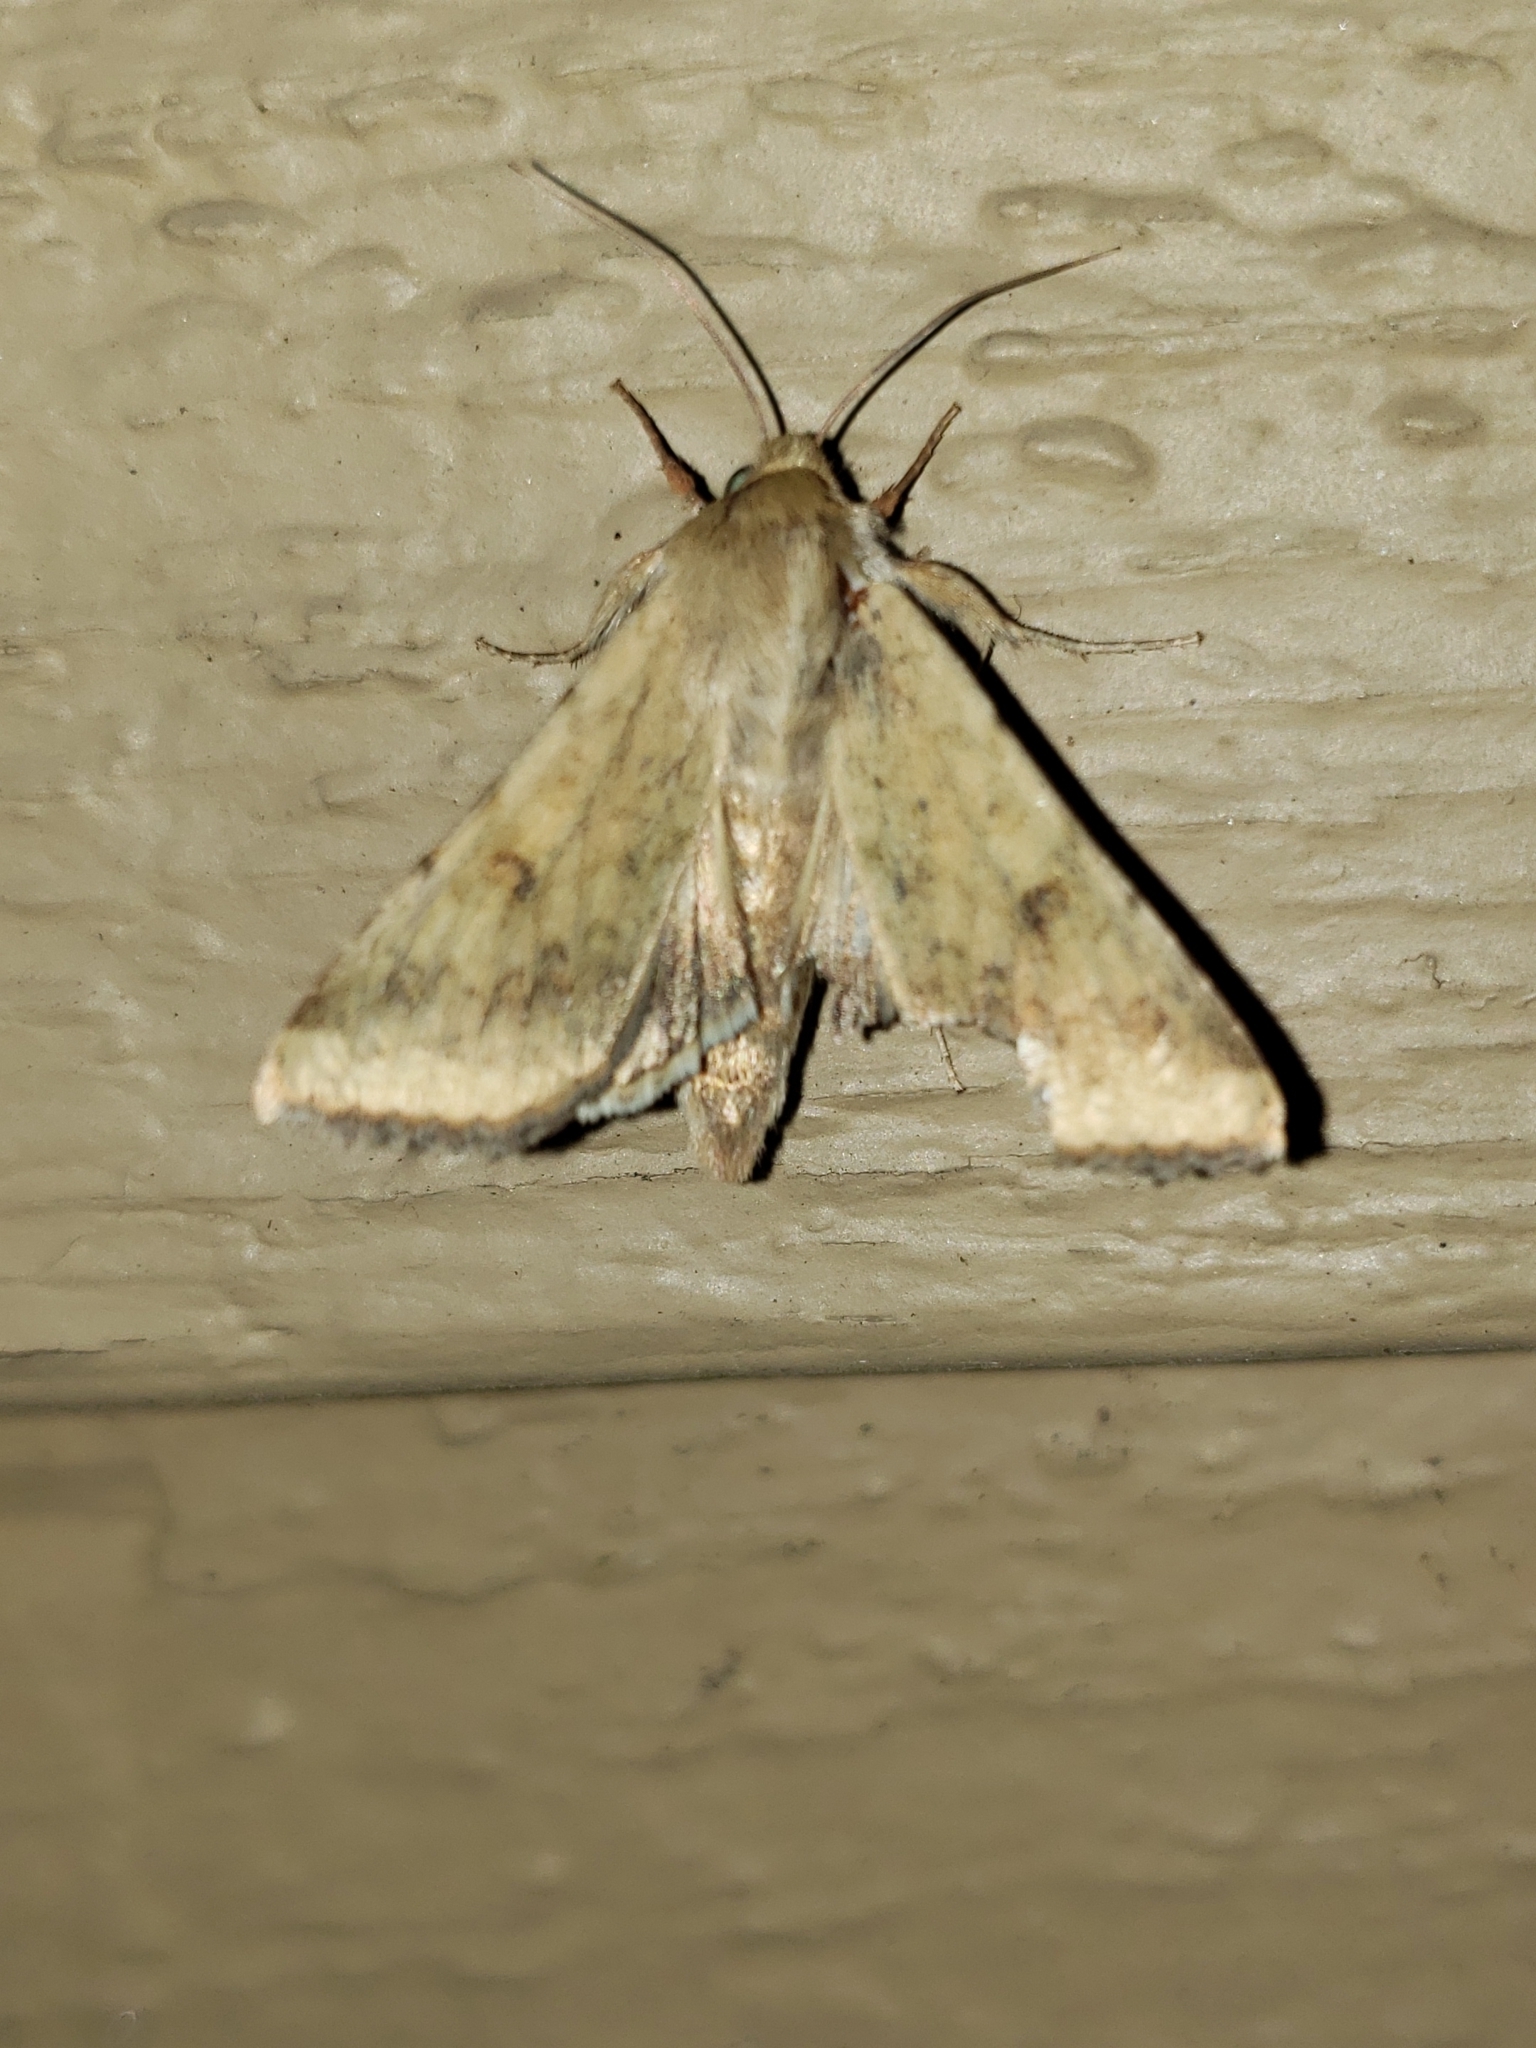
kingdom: Animalia
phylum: Arthropoda
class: Insecta
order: Lepidoptera
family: Noctuidae
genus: Helicoverpa
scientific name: Helicoverpa zea
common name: Bollworm
